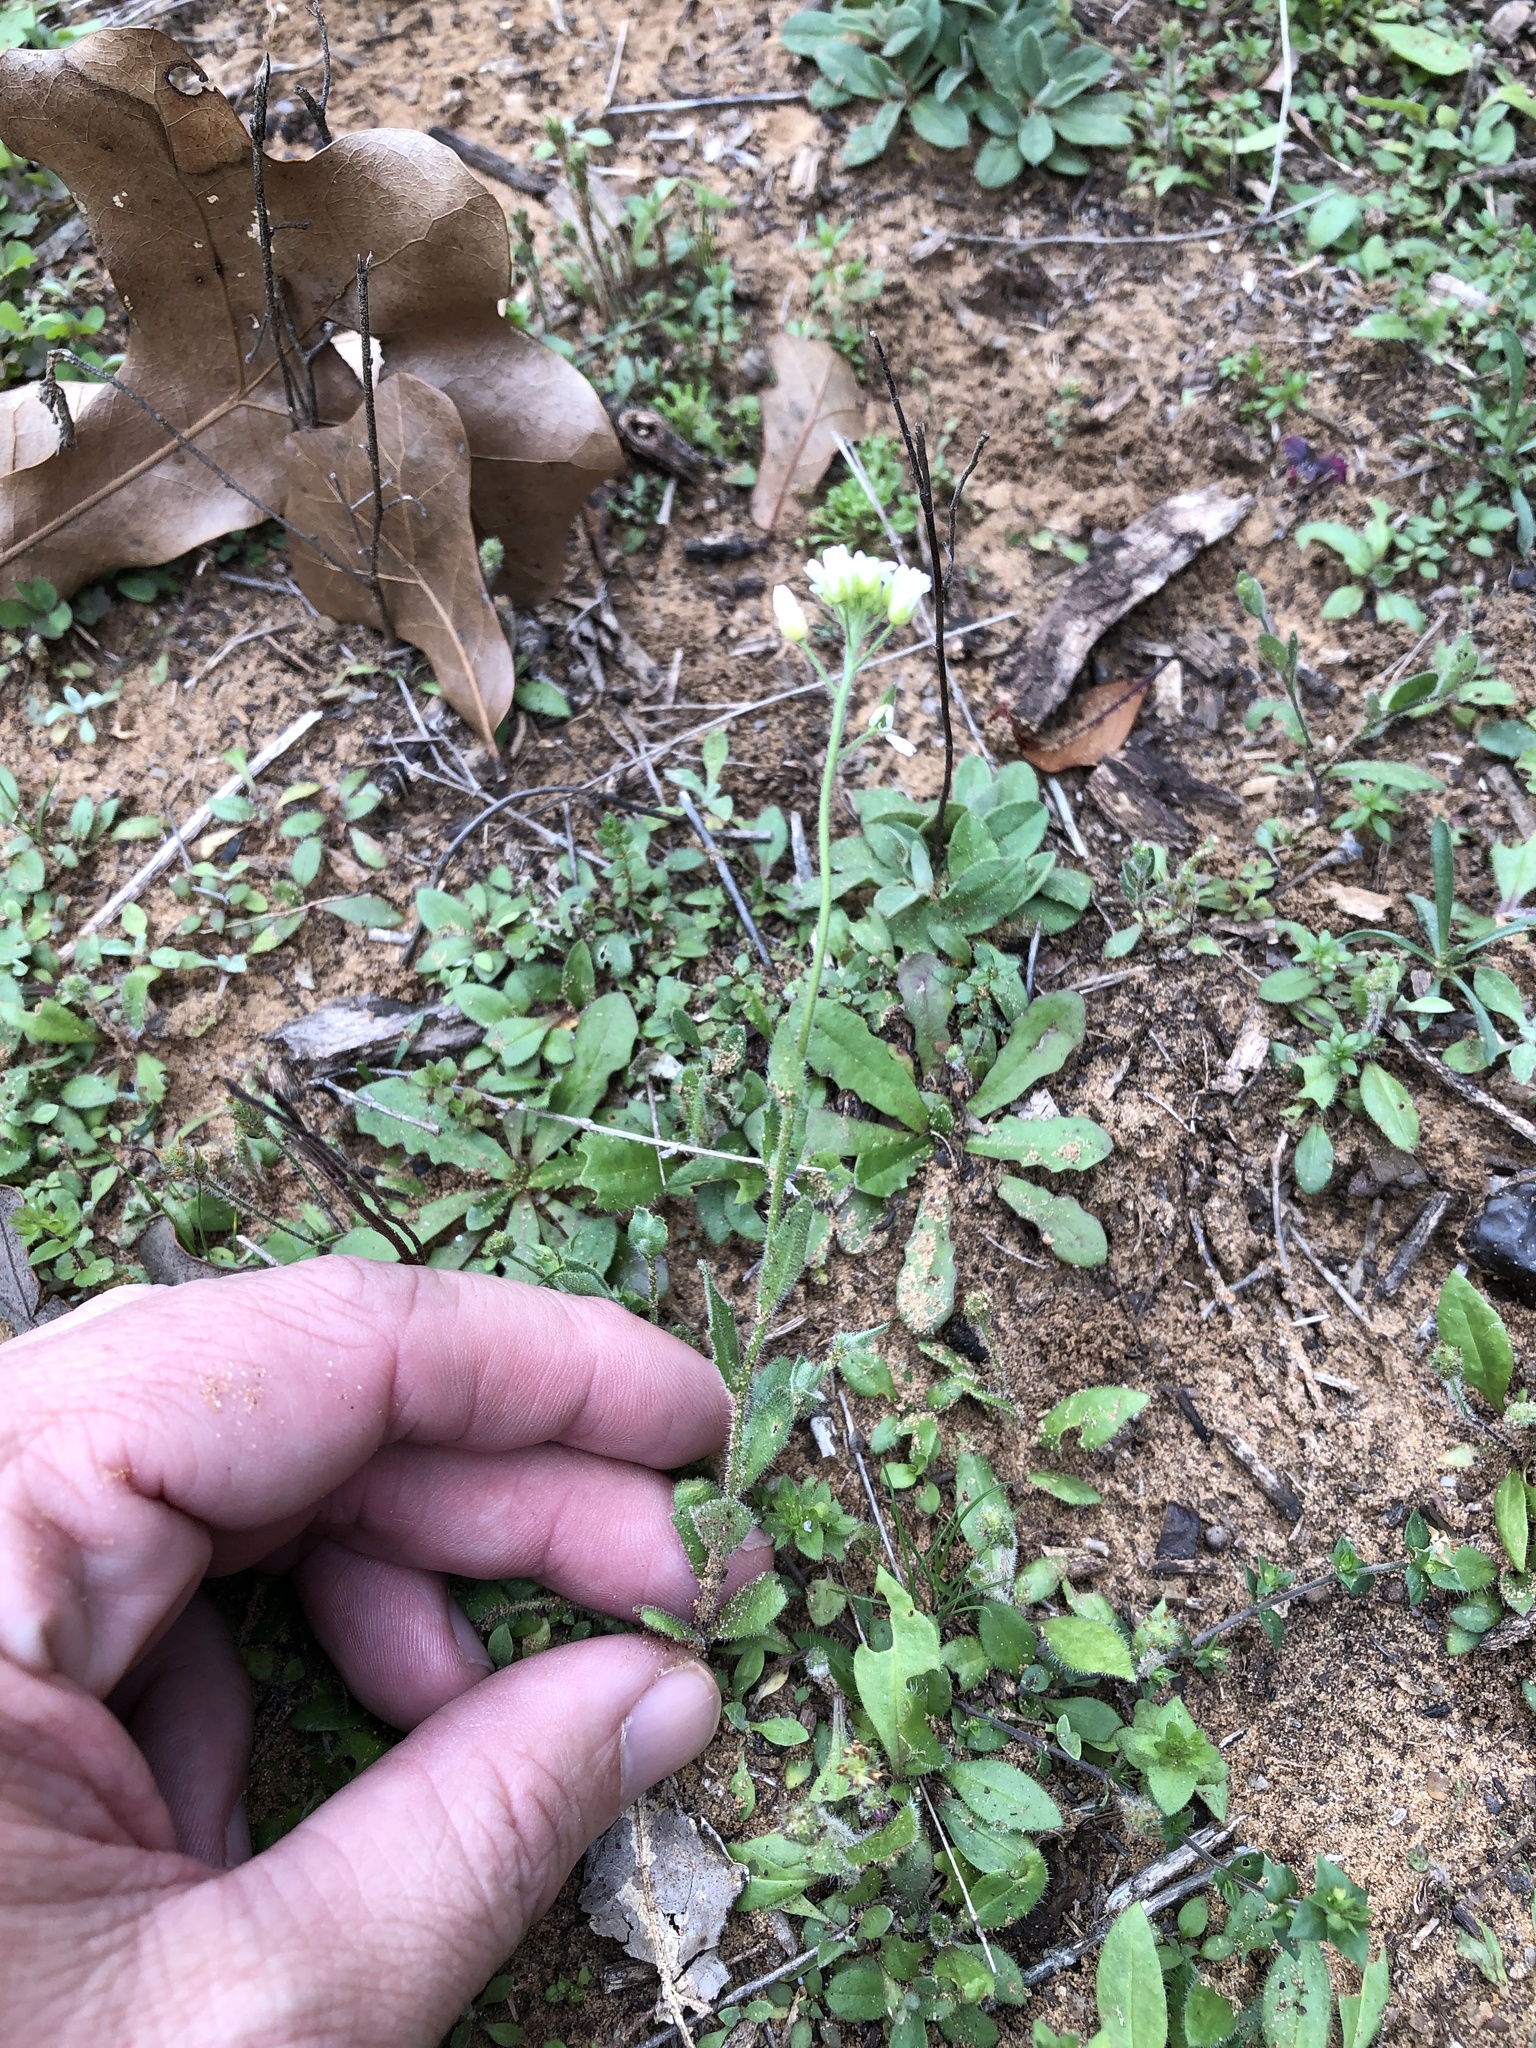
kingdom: Plantae
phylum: Tracheophyta
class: Magnoliopsida
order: Brassicales
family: Brassicaceae
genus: Tomostima
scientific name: Tomostima platycarpa
